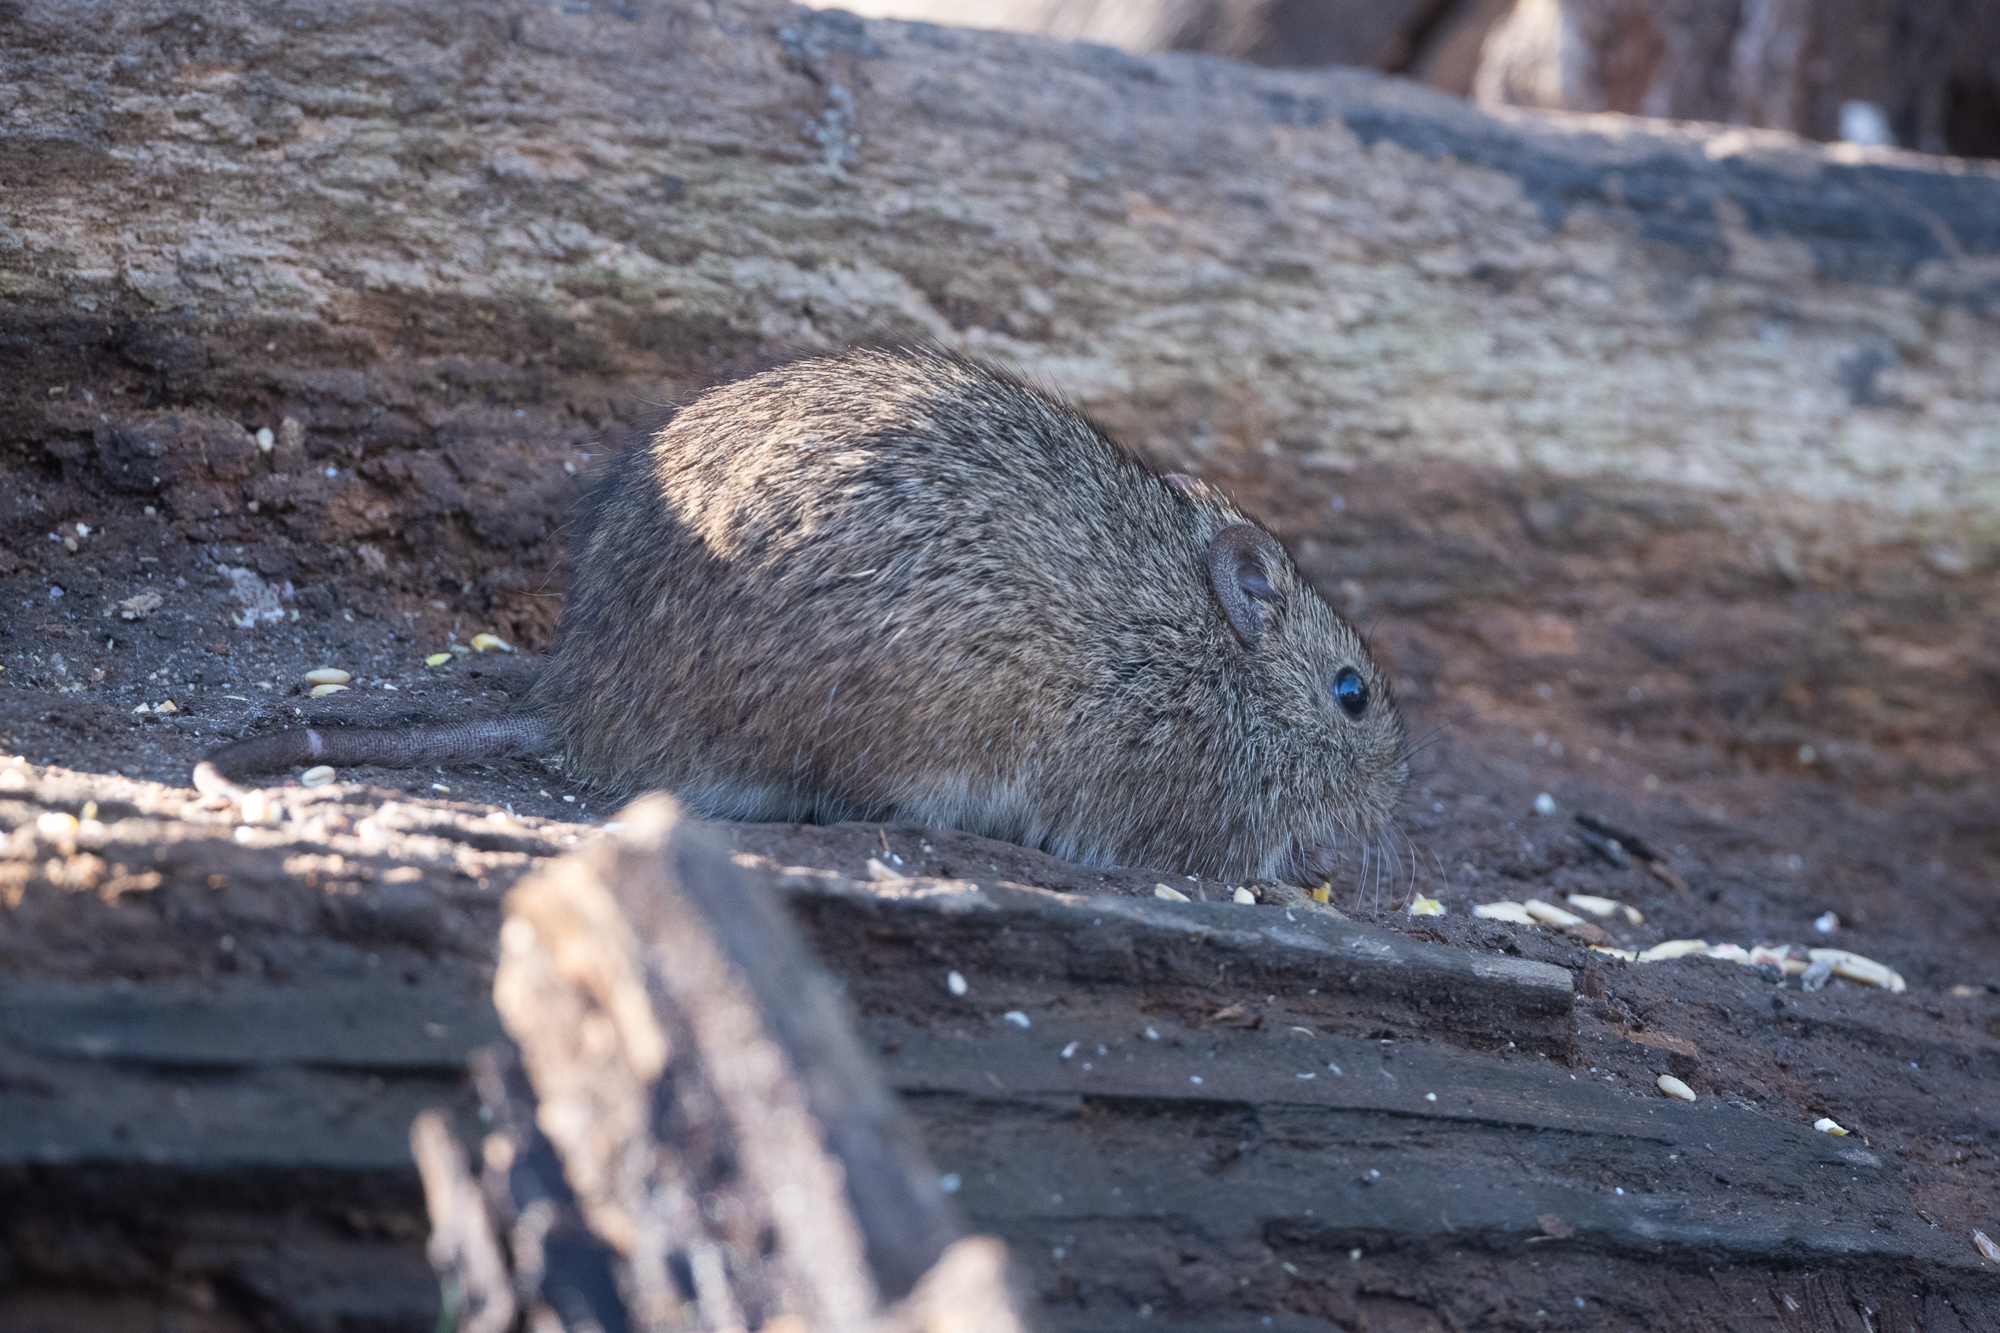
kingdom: Animalia
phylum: Chordata
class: Mammalia
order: Rodentia
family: Cricetidae
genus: Sigmodon
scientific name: Sigmodon hispidus
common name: Hispid cotton rat
